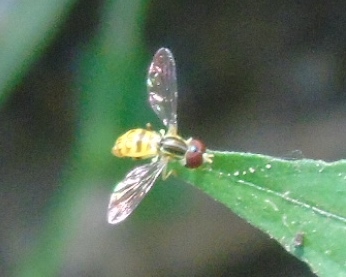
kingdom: Animalia
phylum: Arthropoda
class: Insecta
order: Diptera
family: Syrphidae
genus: Toxomerus
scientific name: Toxomerus
